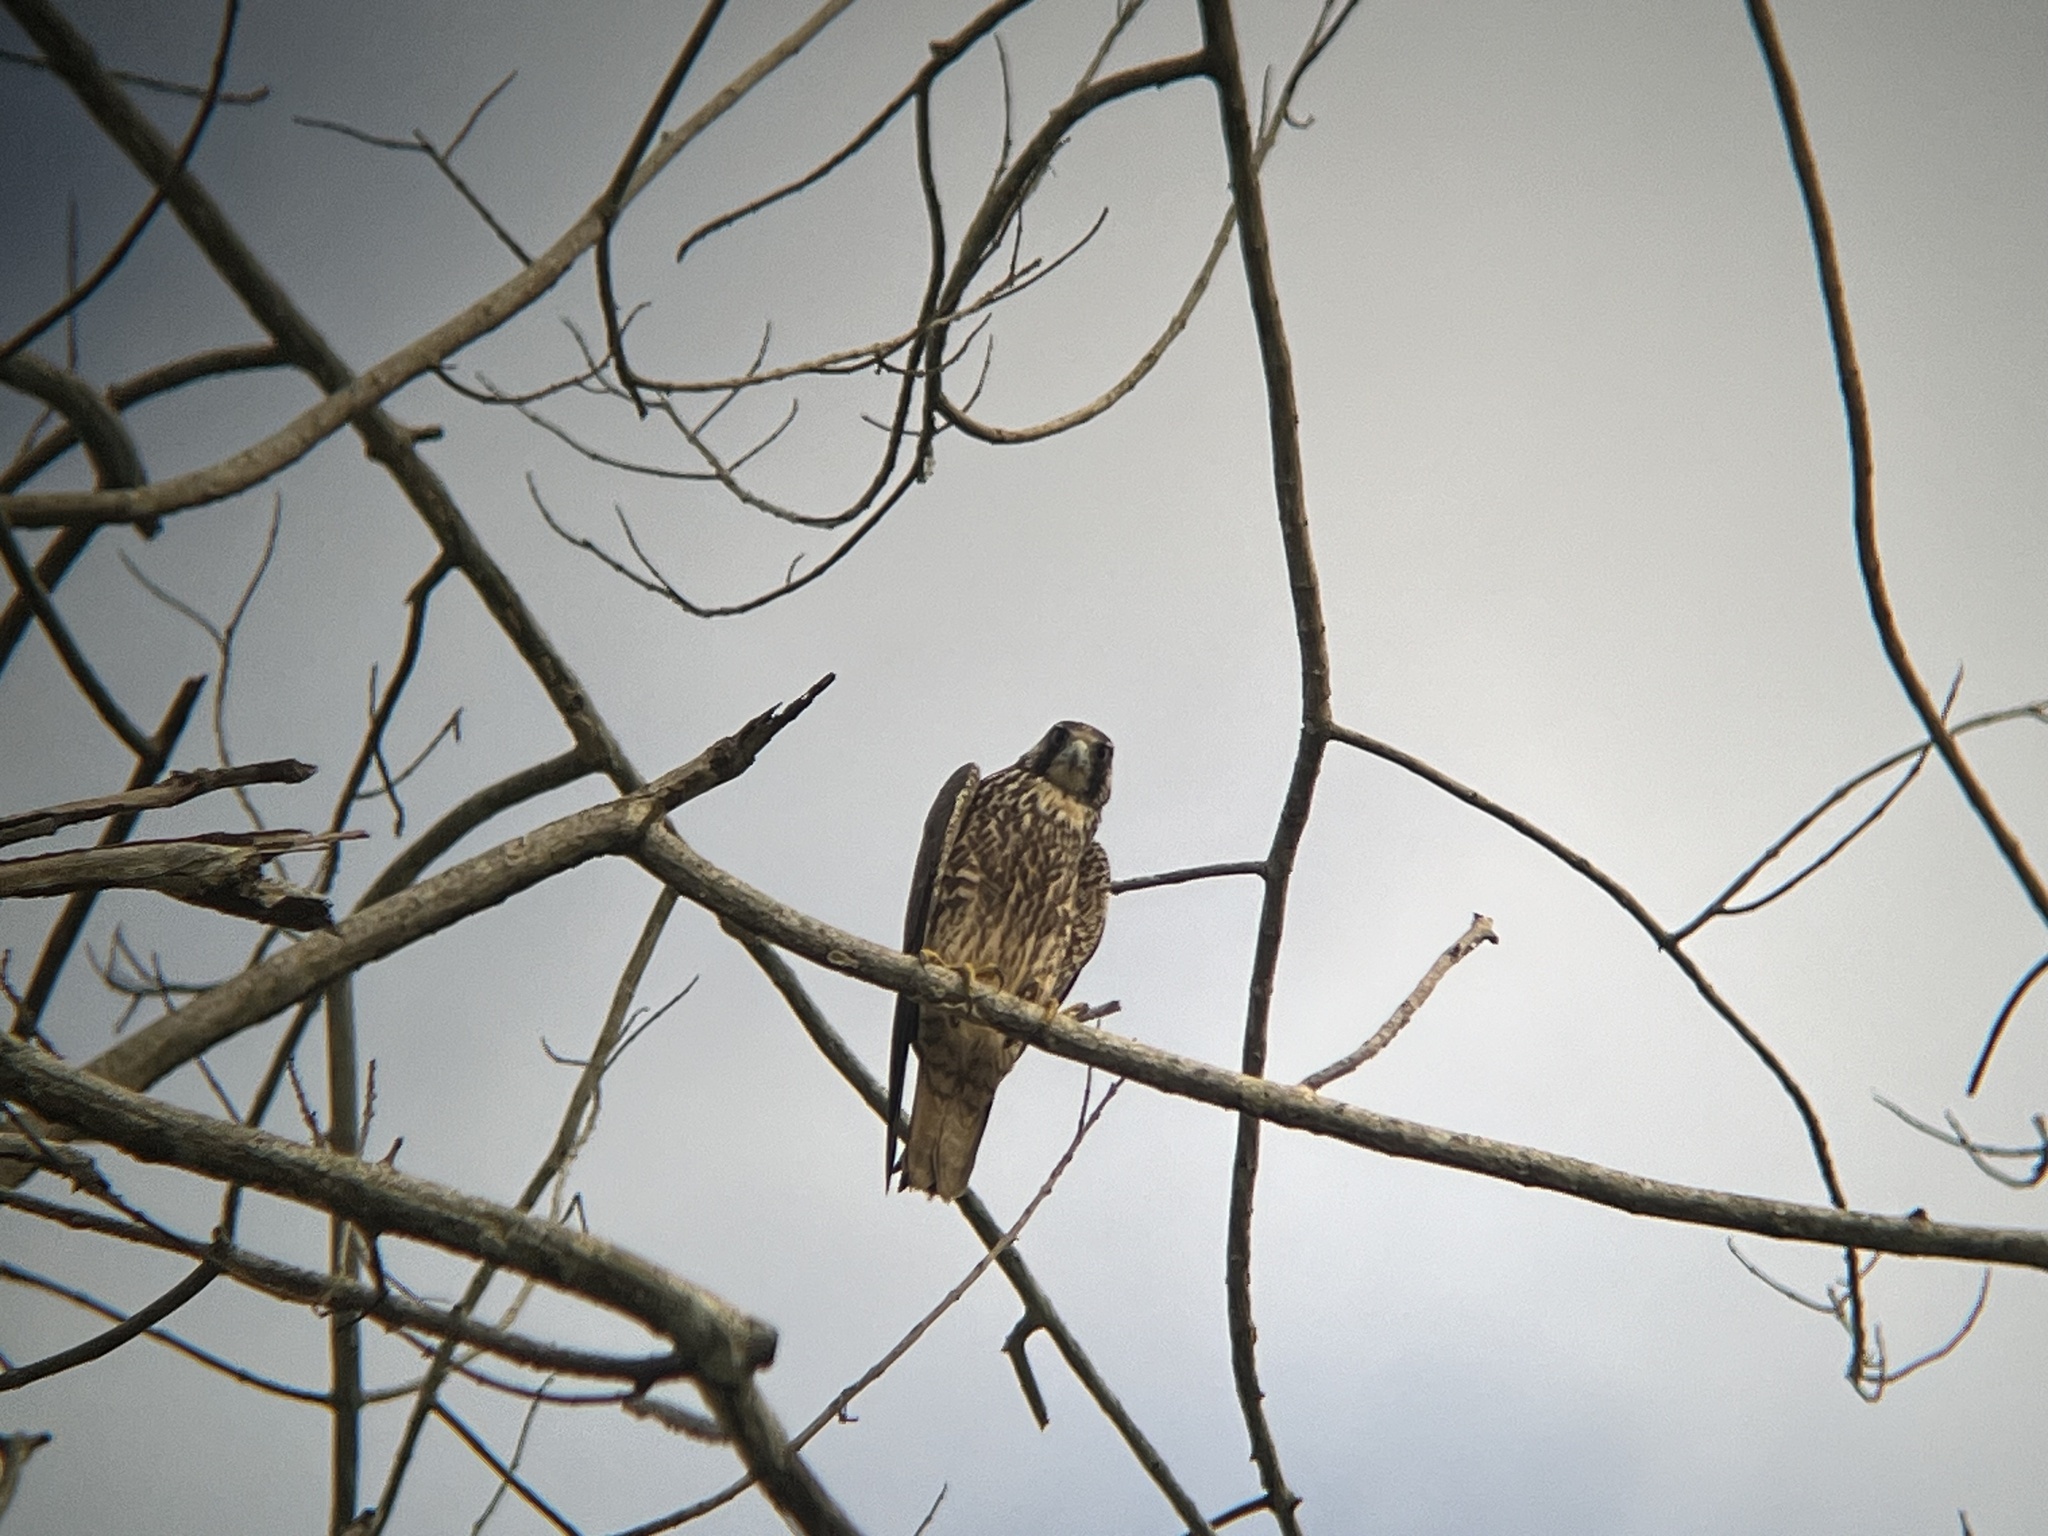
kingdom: Animalia
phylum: Chordata
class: Aves
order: Falconiformes
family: Falconidae
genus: Falco
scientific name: Falco peregrinus
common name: Peregrine falcon
